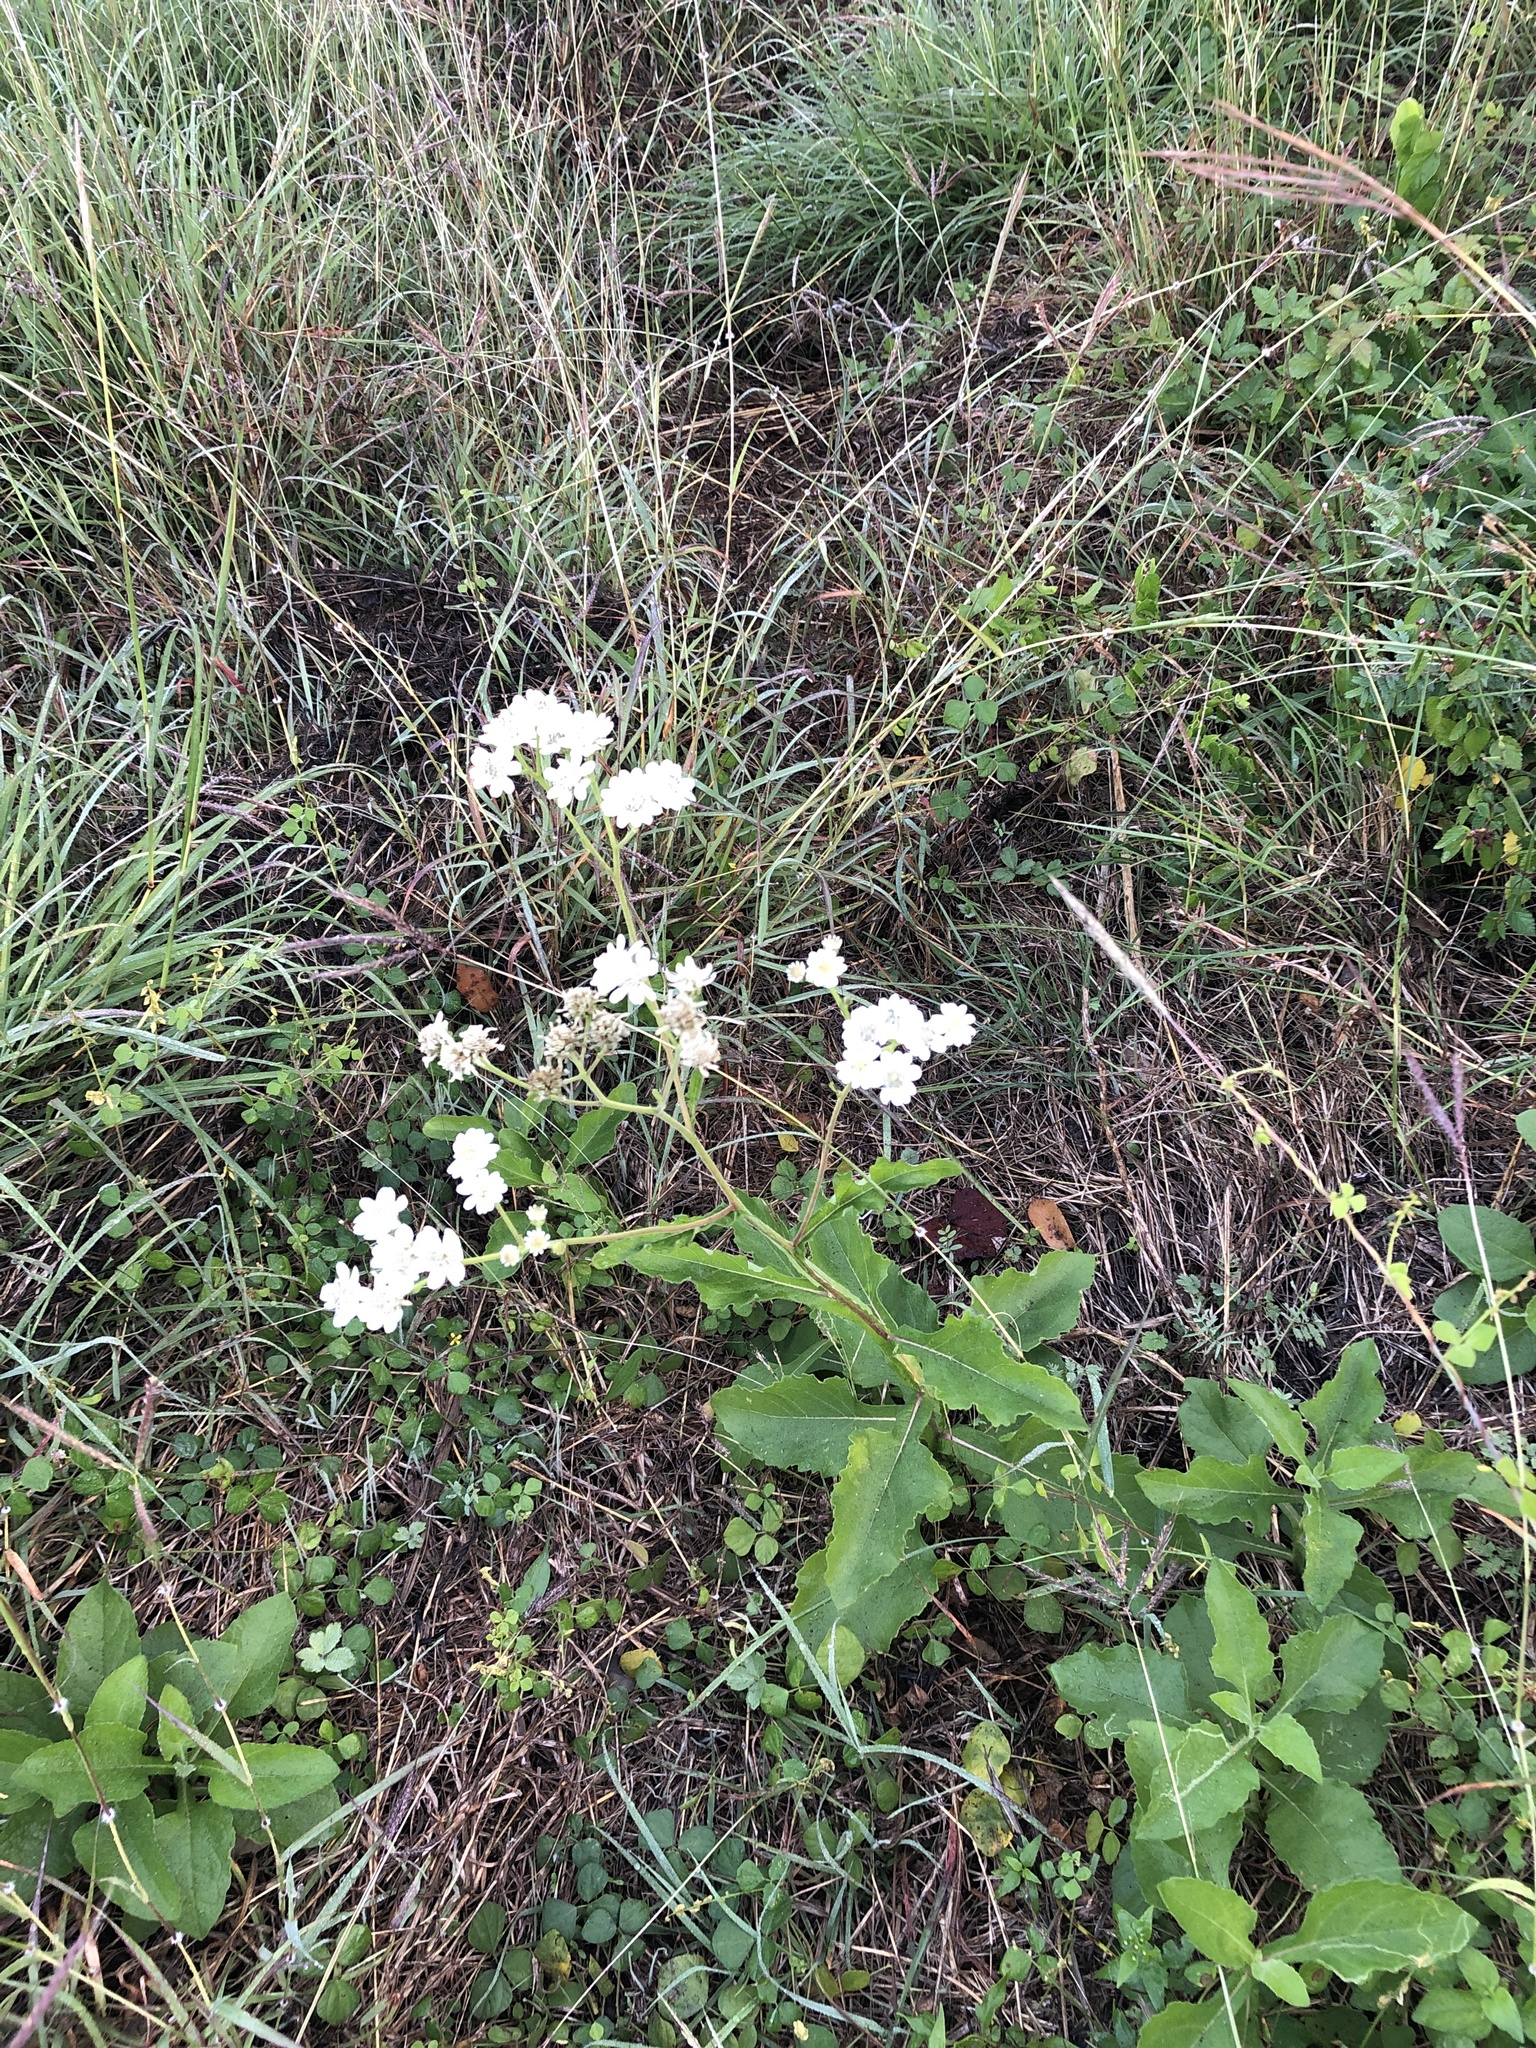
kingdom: Plantae
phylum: Tracheophyta
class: Magnoliopsida
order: Asterales
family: Asteraceae
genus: Verbesina
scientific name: Verbesina microptera
